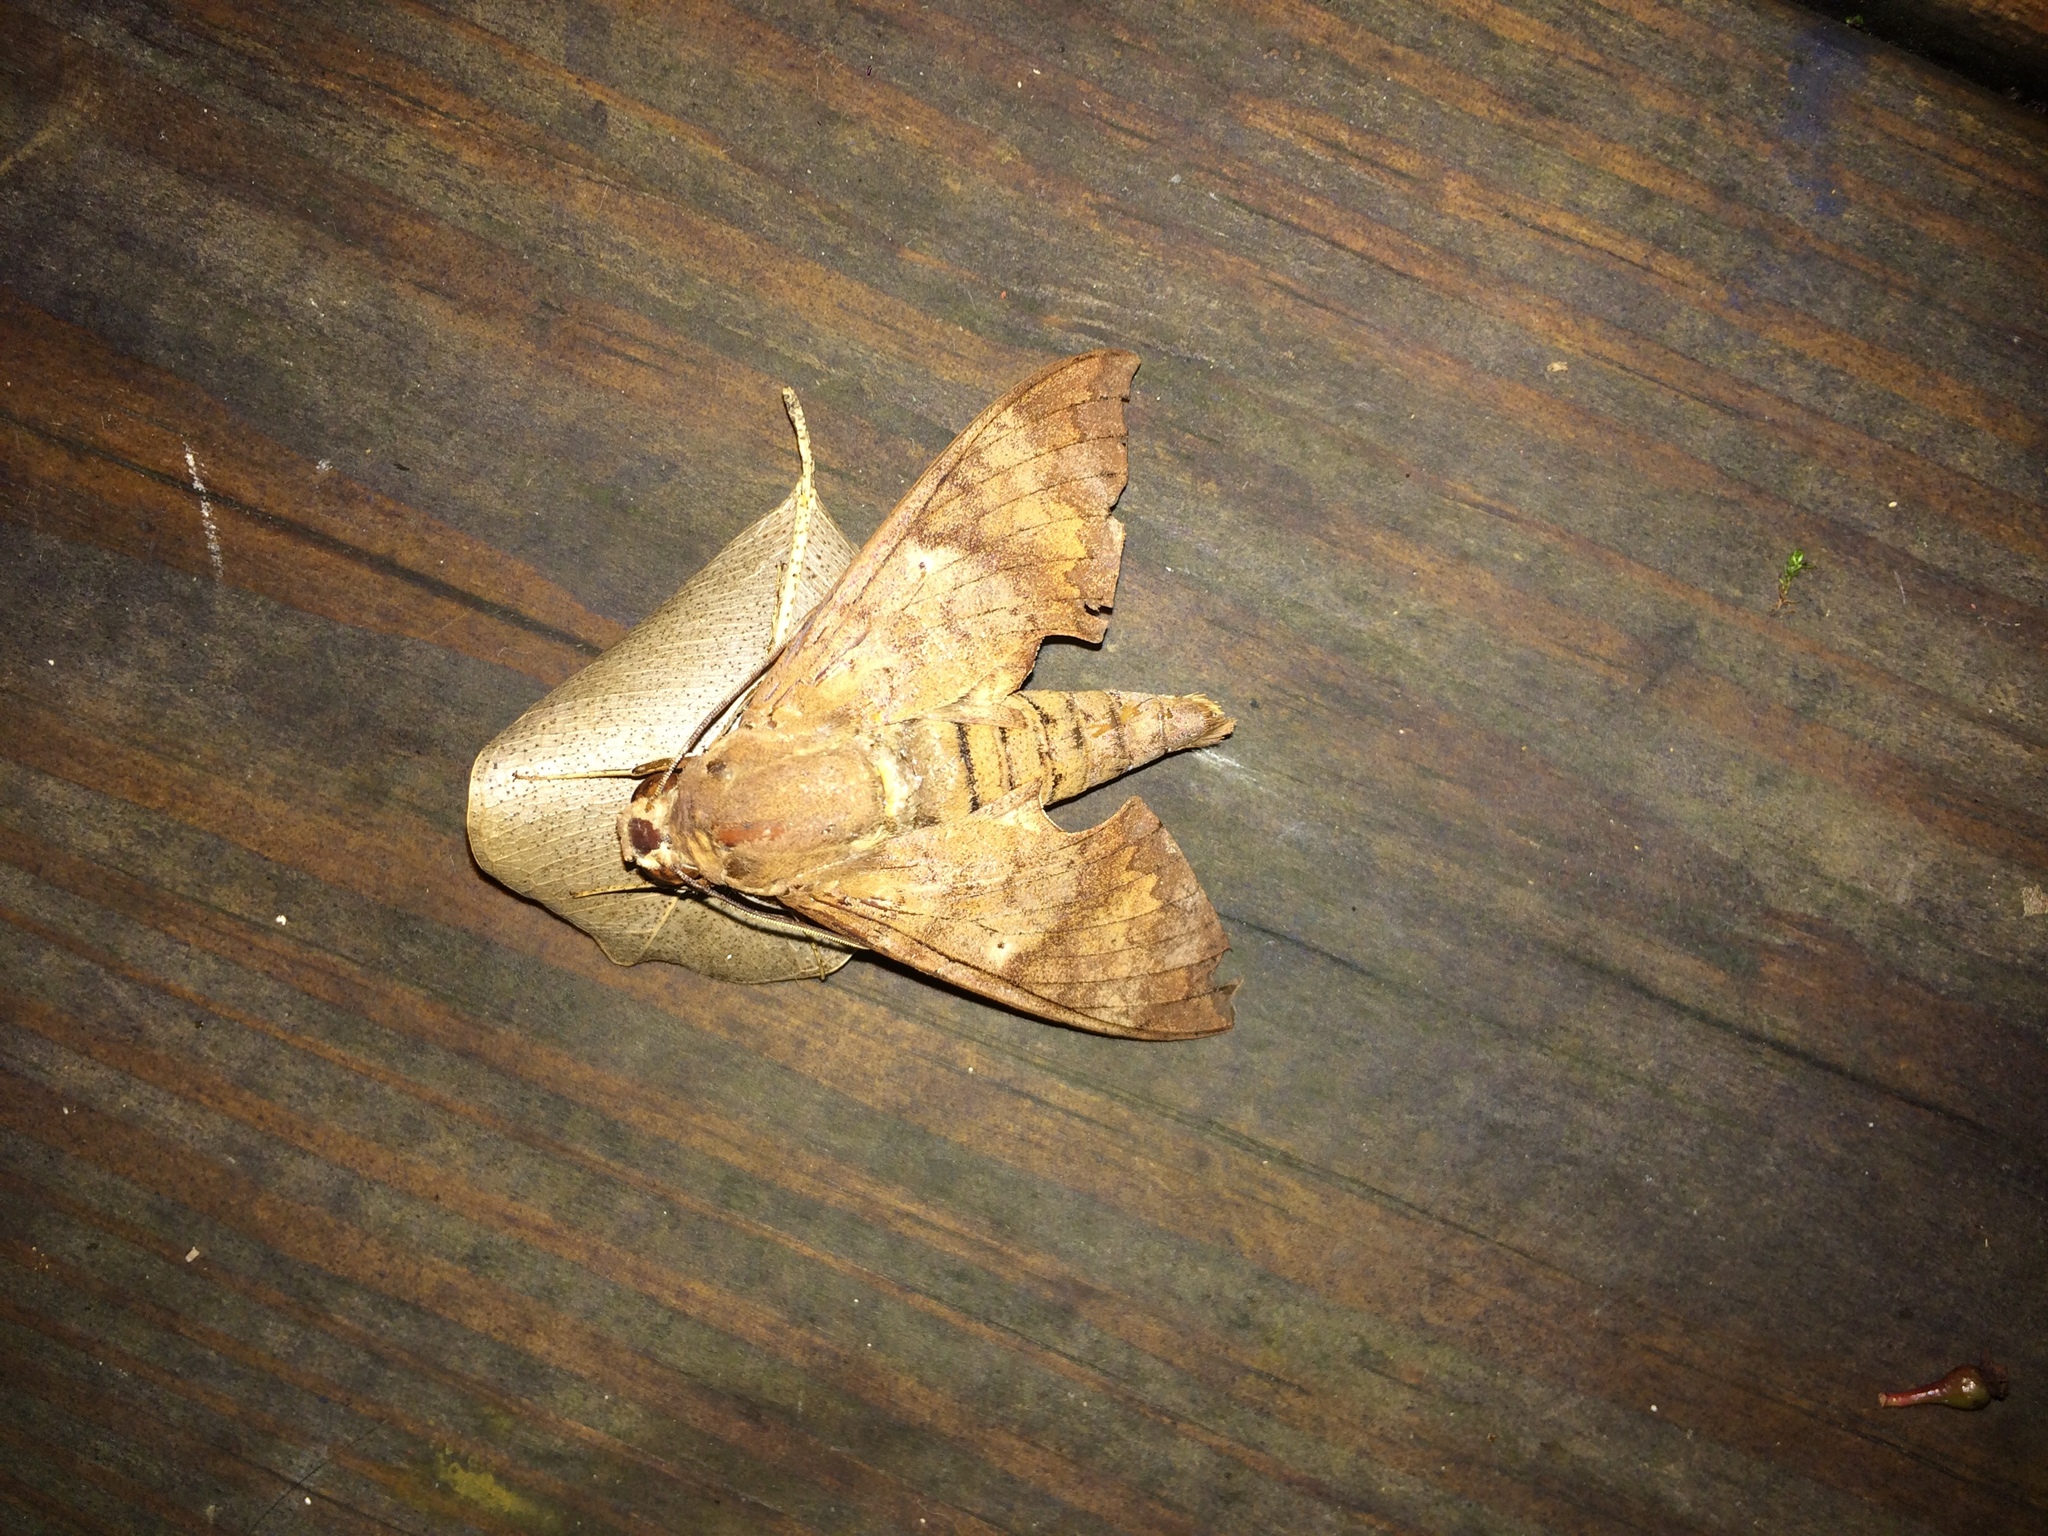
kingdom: Animalia
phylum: Arthropoda
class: Insecta
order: Lepidoptera
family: Sphingidae
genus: Pachylioides
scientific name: Pachylioides resumens
